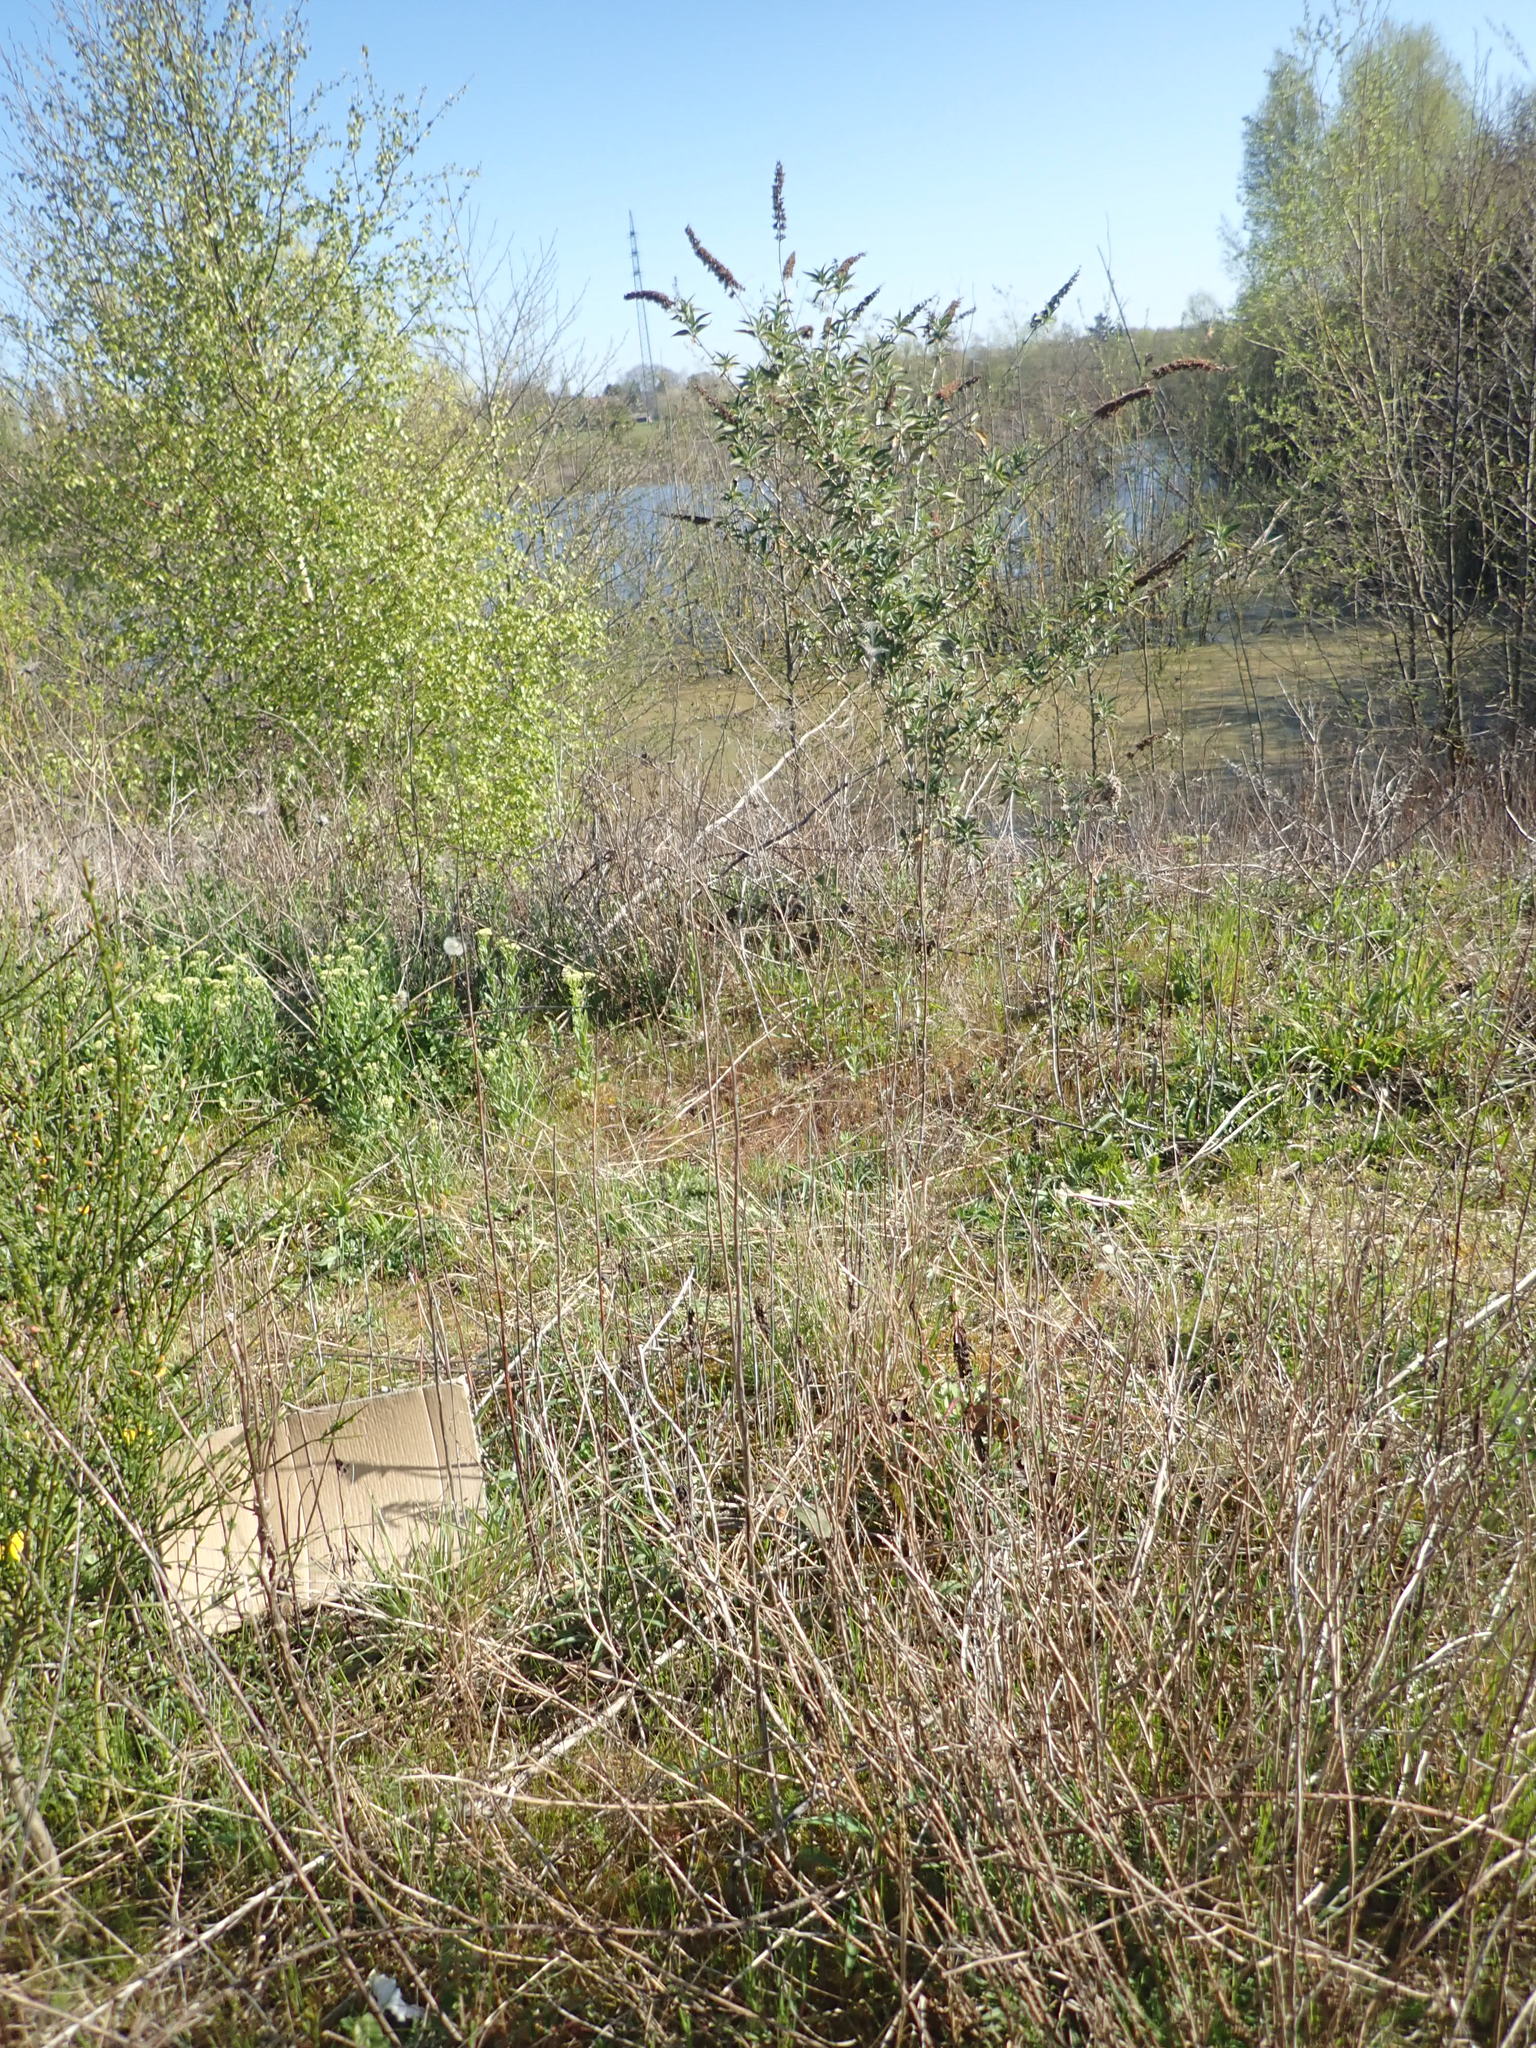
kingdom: Plantae
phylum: Tracheophyta
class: Magnoliopsida
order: Lamiales
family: Scrophulariaceae
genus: Buddleja
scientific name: Buddleja davidii
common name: Butterfly-bush
